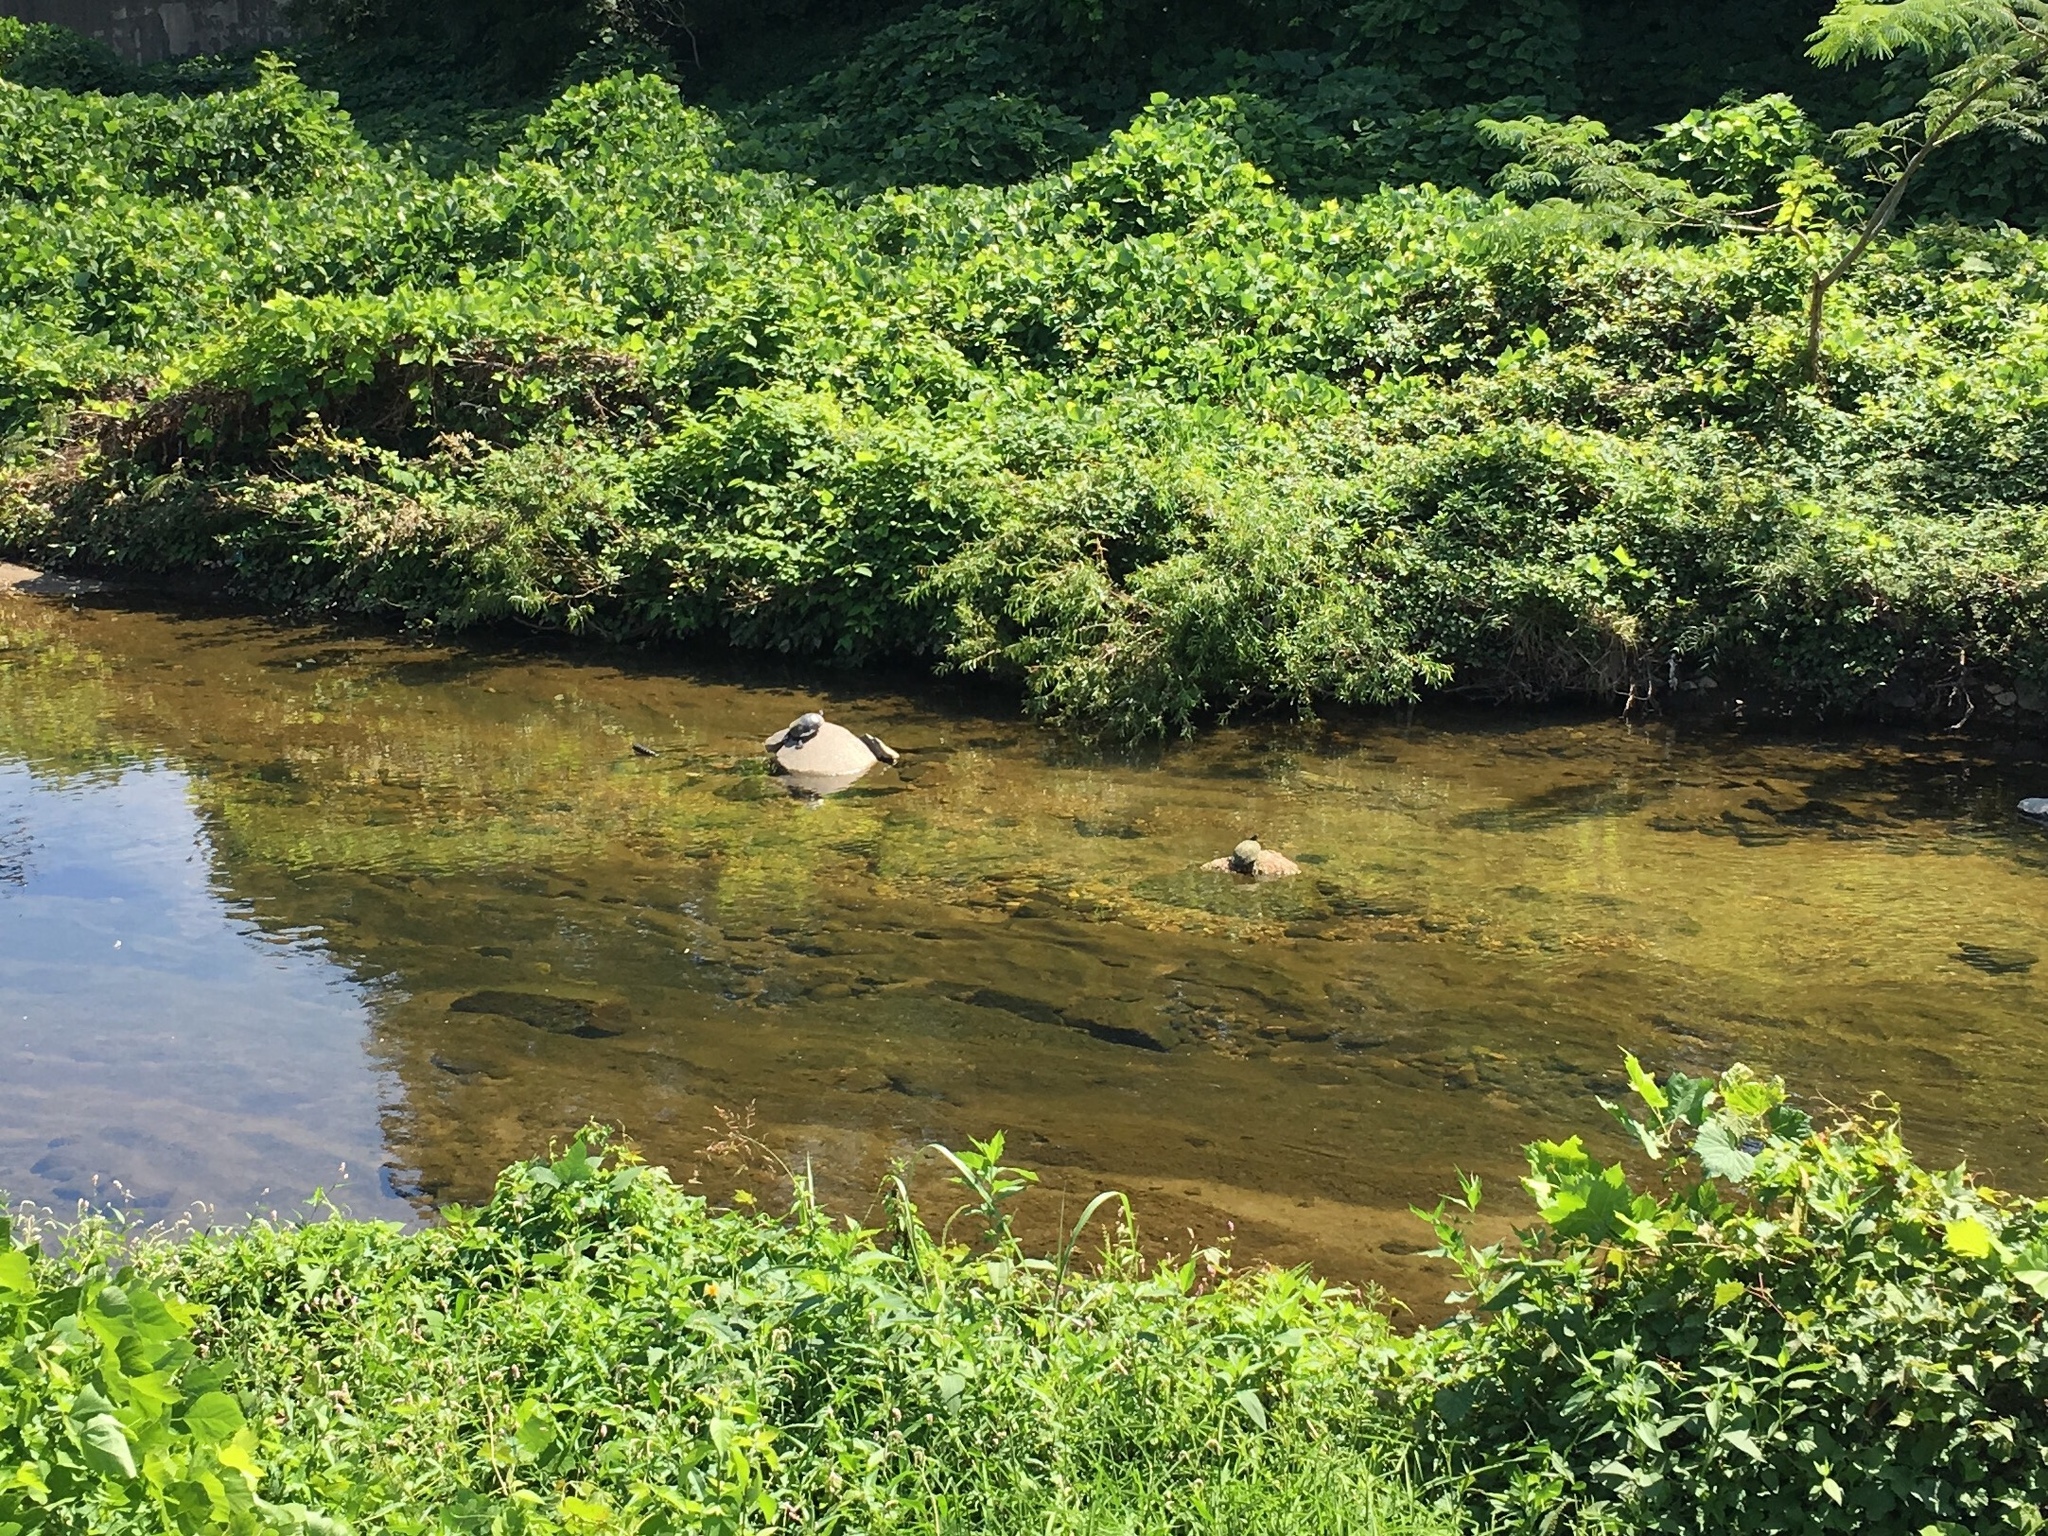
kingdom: Animalia
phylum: Chordata
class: Testudines
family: Emydidae
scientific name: Emydidae
